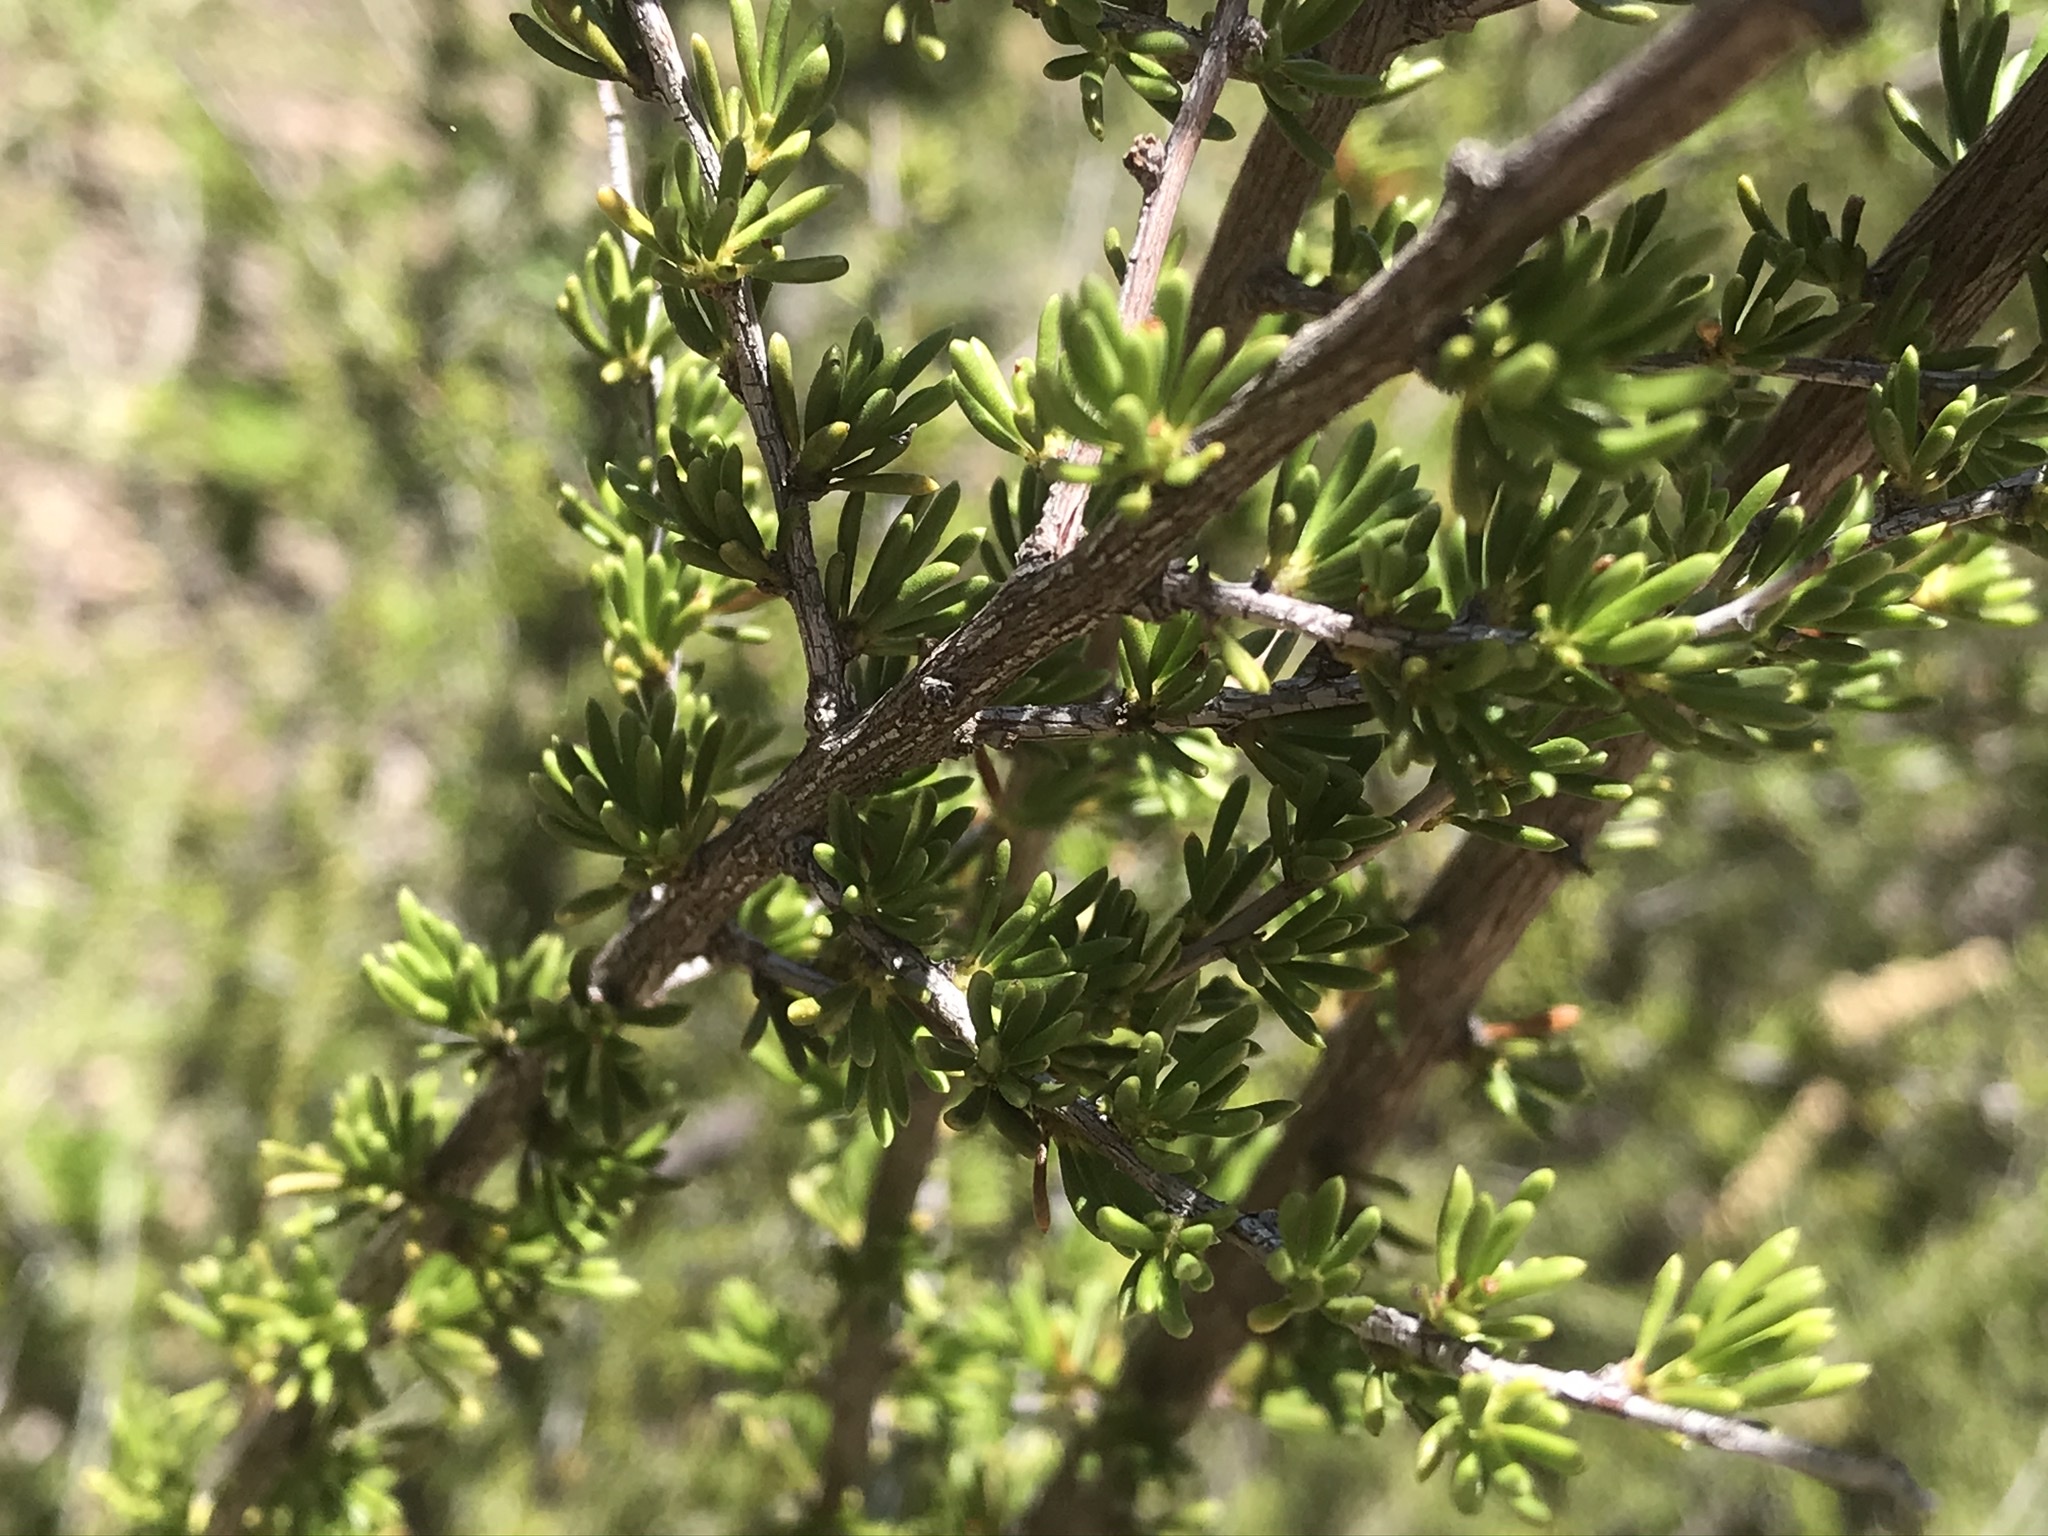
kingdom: Plantae
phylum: Tracheophyta
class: Magnoliopsida
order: Rosales
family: Rosaceae
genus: Adenostoma
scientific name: Adenostoma fasciculatum
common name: Chamise
